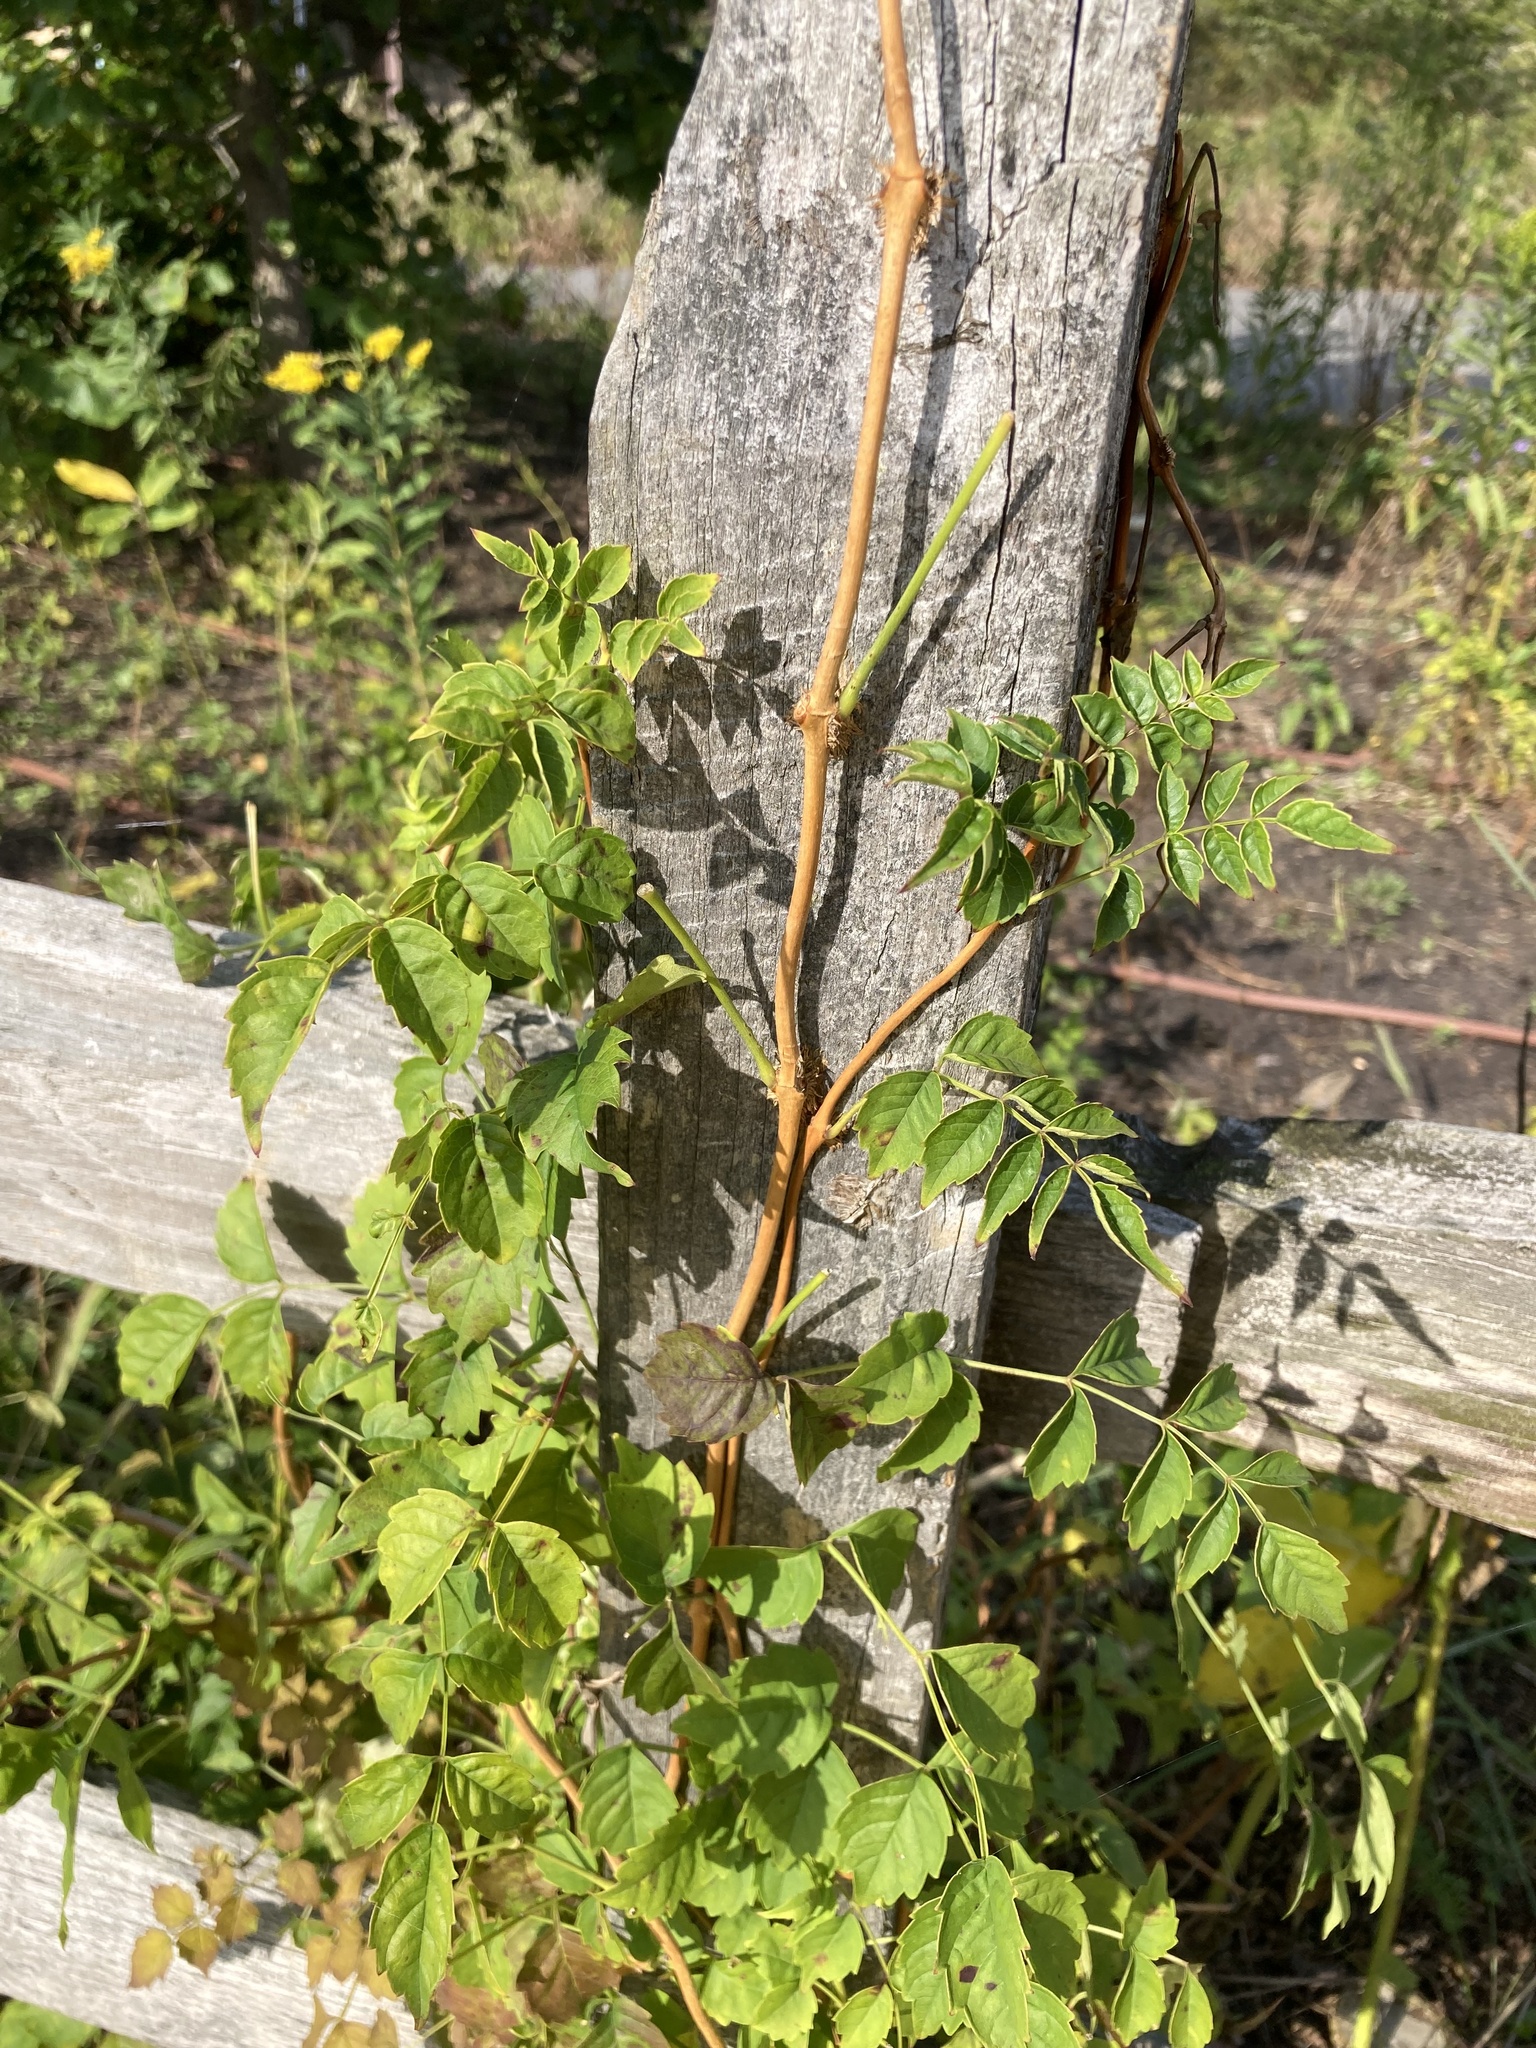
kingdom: Plantae
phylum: Tracheophyta
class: Magnoliopsida
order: Lamiales
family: Bignoniaceae
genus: Campsis
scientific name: Campsis radicans
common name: Trumpet-creeper
